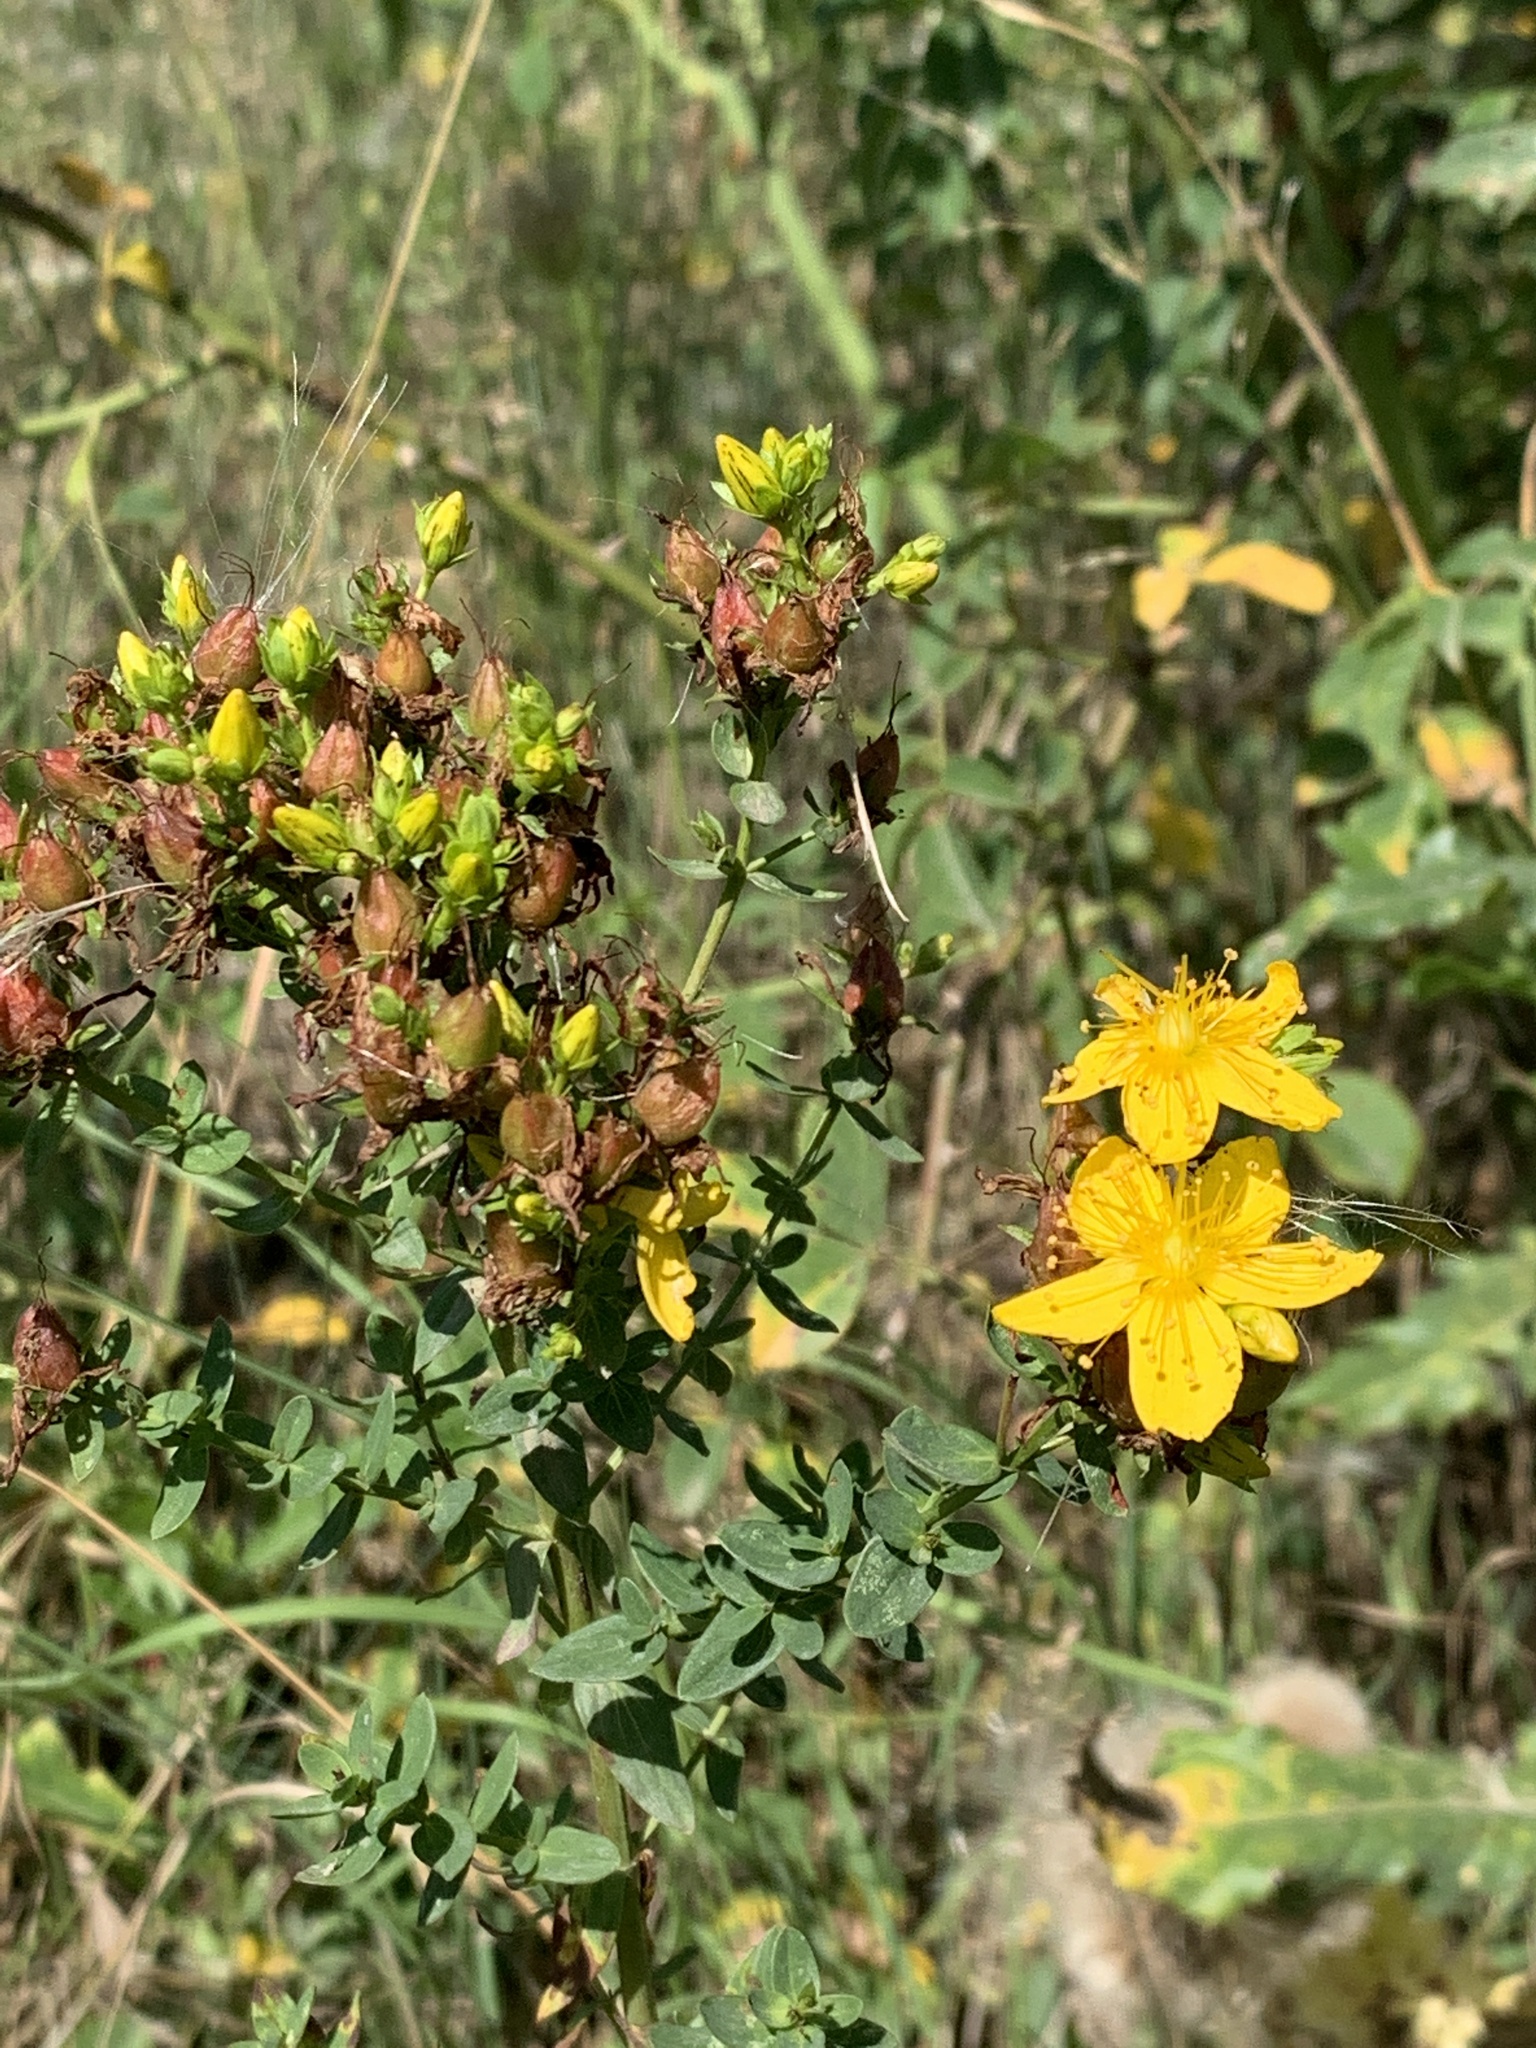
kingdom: Plantae
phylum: Tracheophyta
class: Magnoliopsida
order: Malpighiales
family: Hypericaceae
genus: Hypericum
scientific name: Hypericum perforatum
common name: Common st. johnswort
